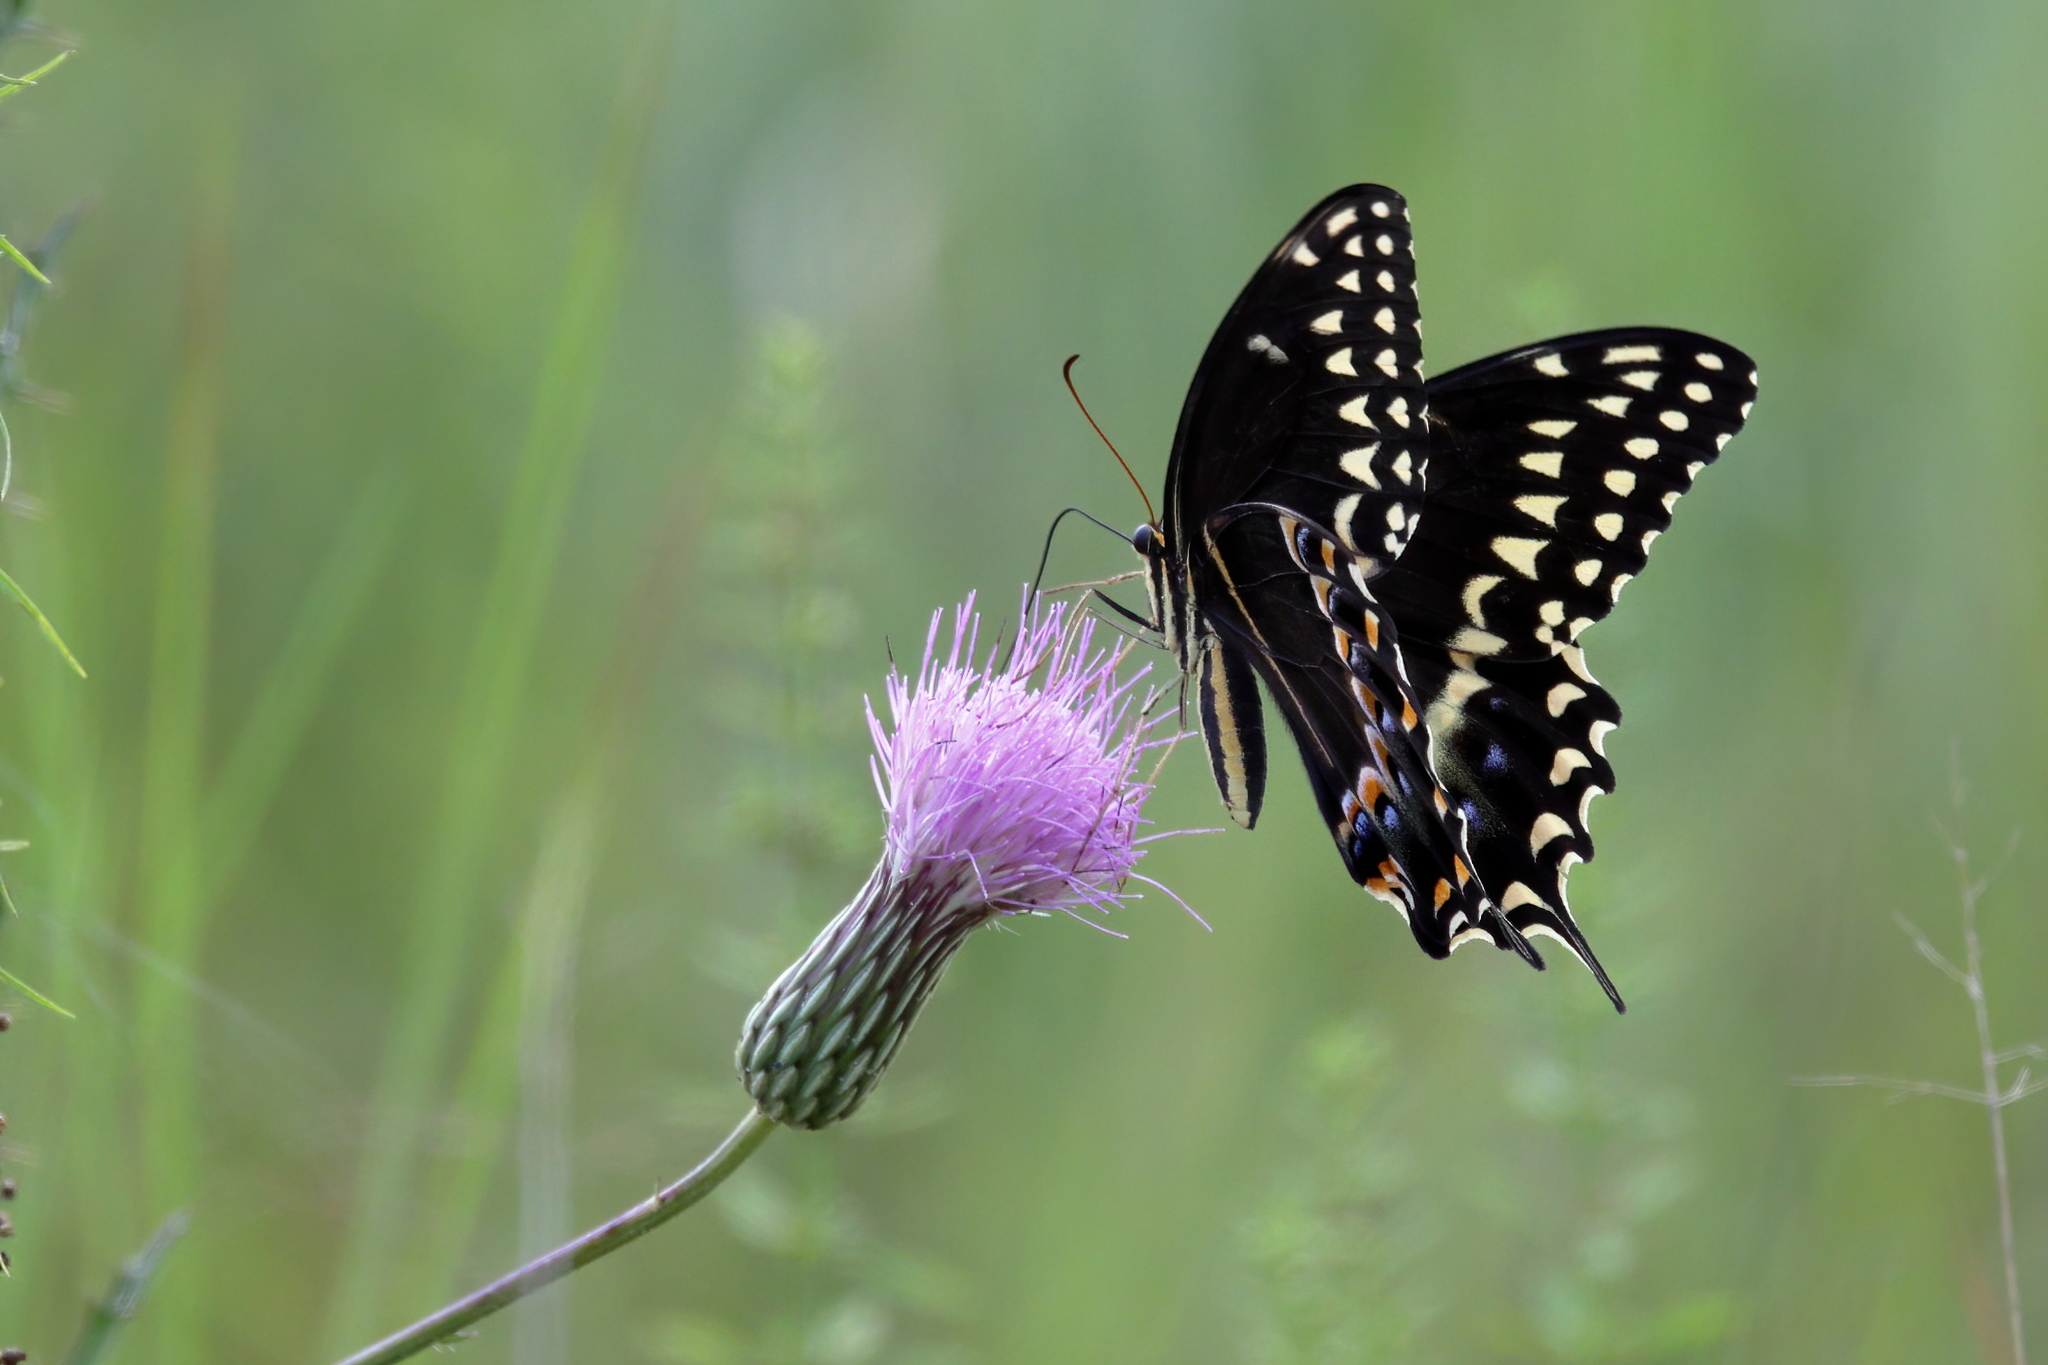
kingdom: Animalia
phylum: Arthropoda
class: Insecta
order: Lepidoptera
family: Papilionidae
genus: Papilio
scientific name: Papilio palamedes
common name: Palamedes swallowtail
